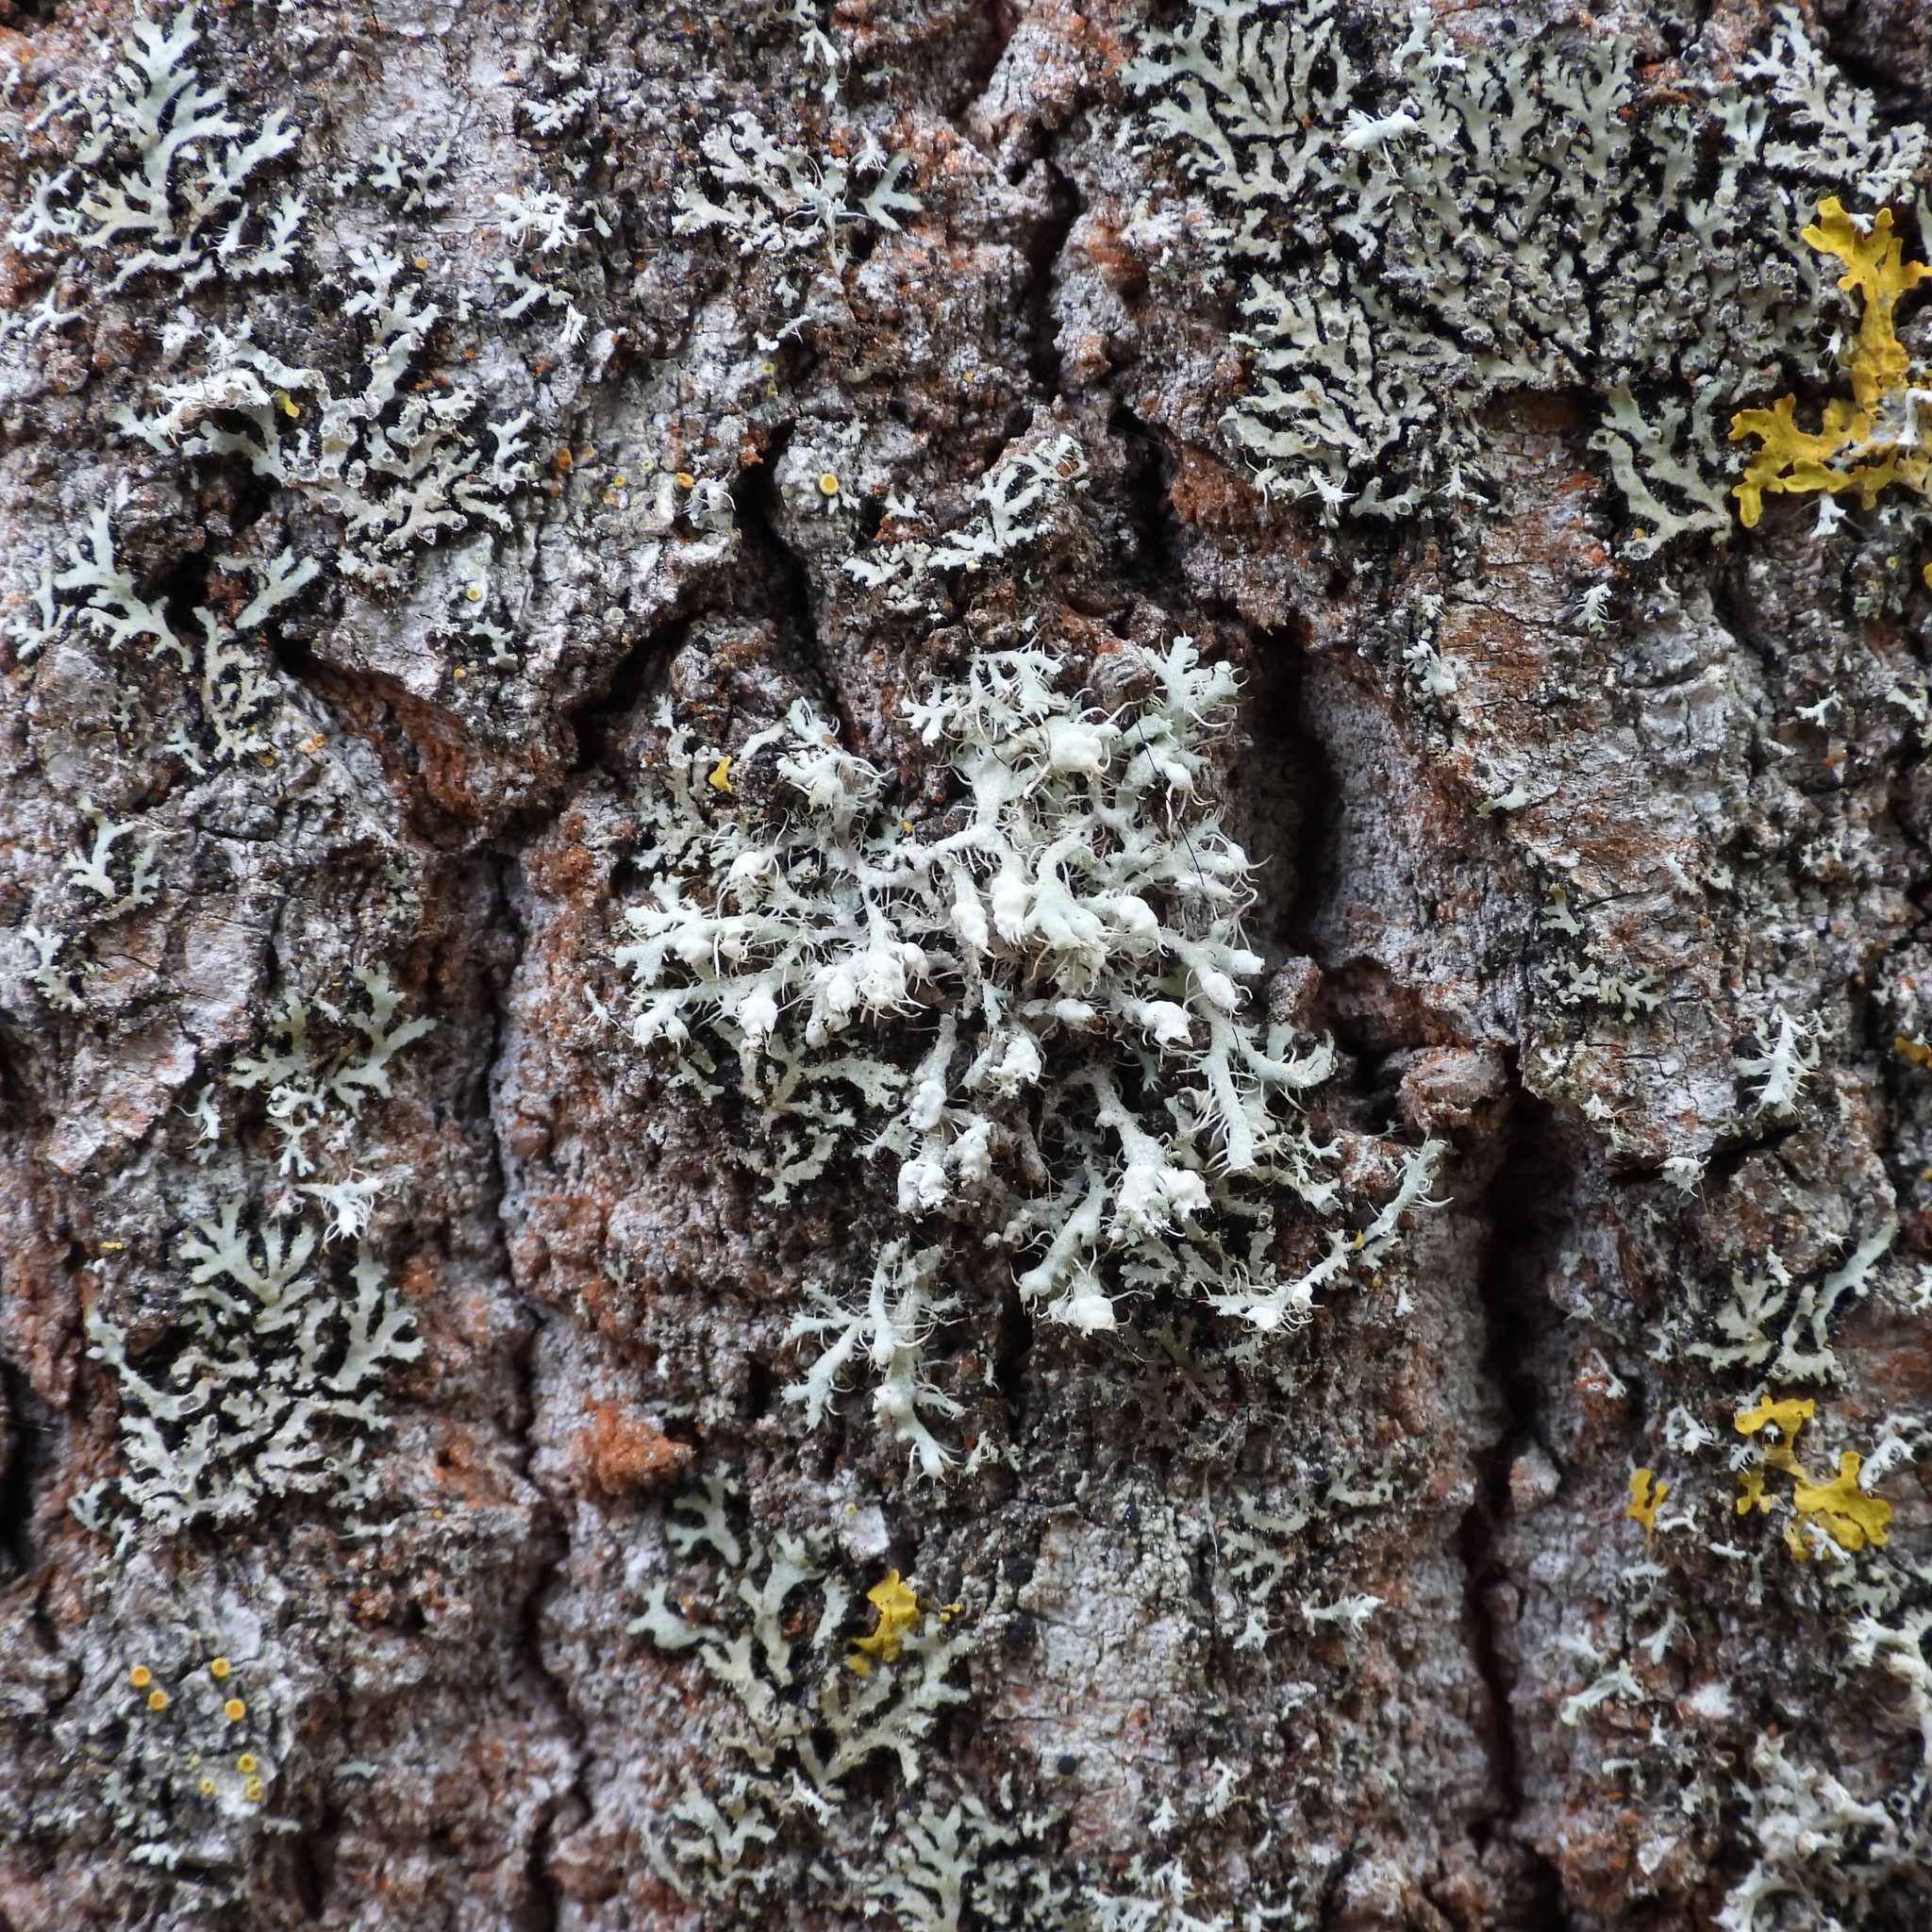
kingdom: Fungi
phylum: Ascomycota
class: Lecanoromycetes
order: Caliciales
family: Physciaceae
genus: Physcia
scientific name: Physcia adscendens
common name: Hooded rosette lichen
